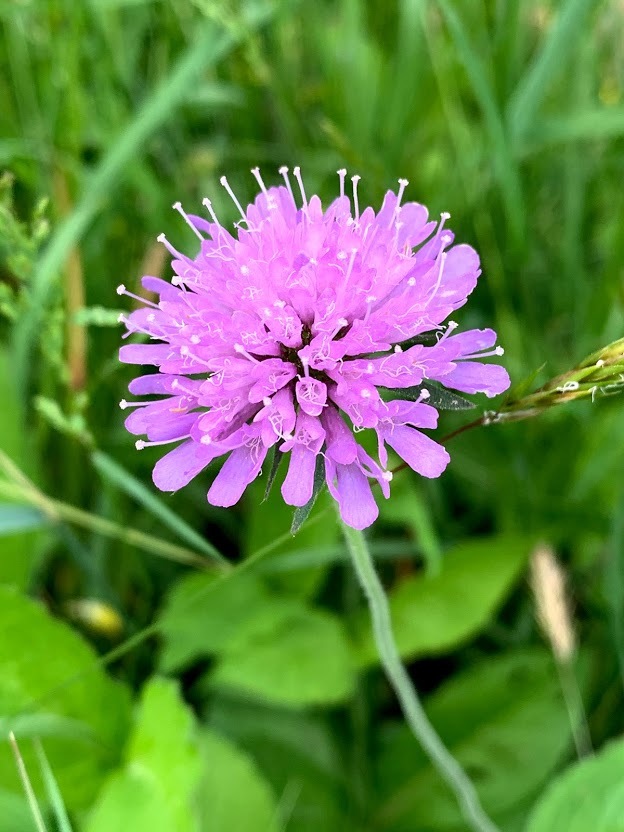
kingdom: Plantae
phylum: Tracheophyta
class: Magnoliopsida
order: Dipsacales
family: Caprifoliaceae
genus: Knautia
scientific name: Knautia drymeia
